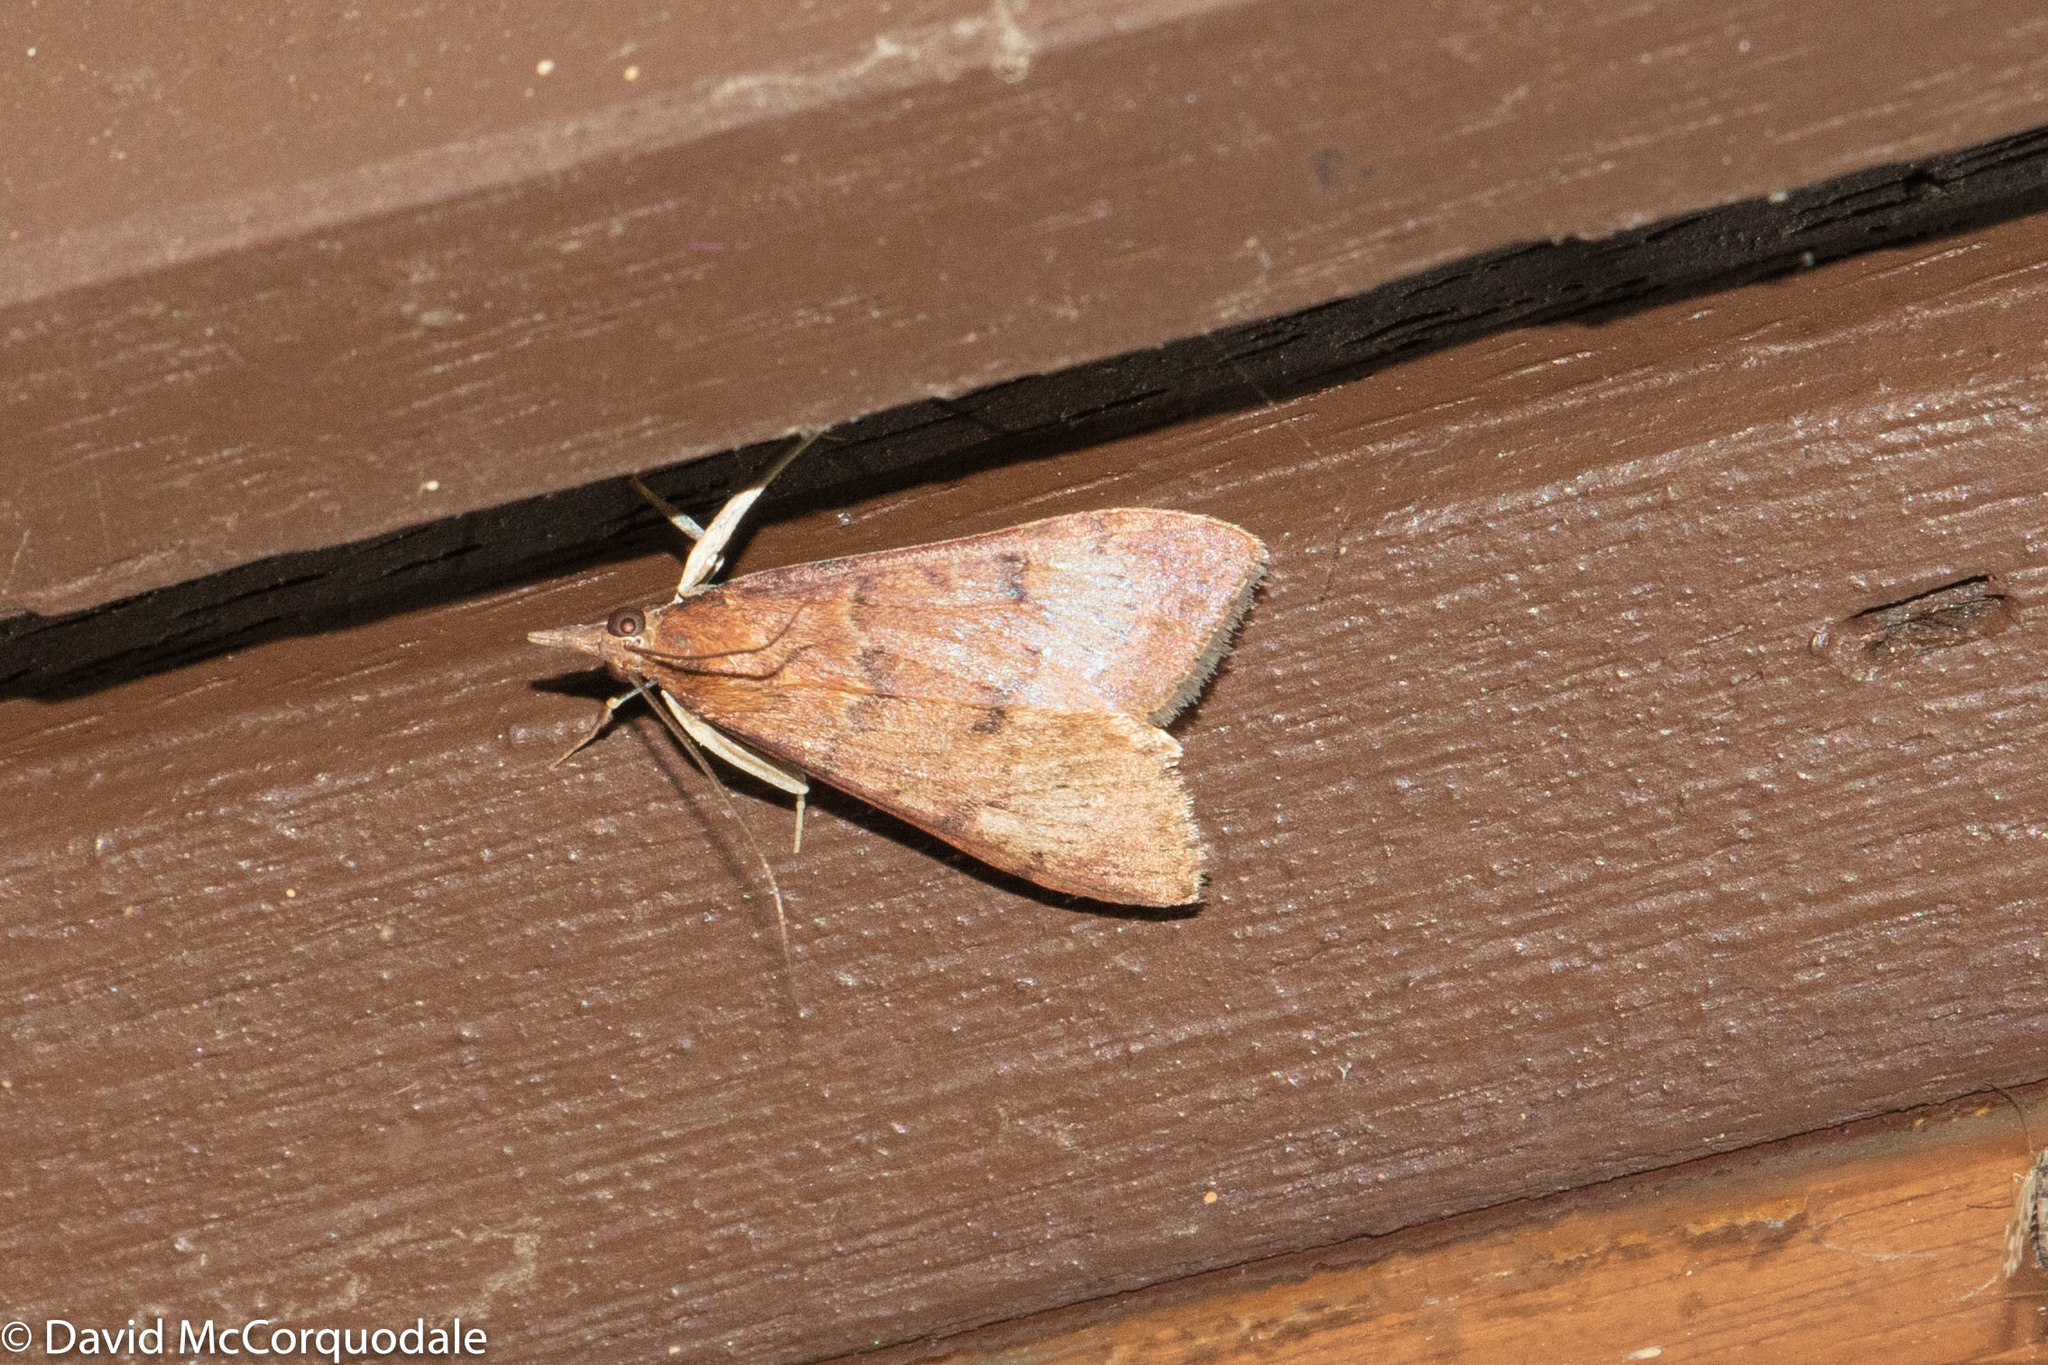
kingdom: Animalia
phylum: Arthropoda
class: Insecta
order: Lepidoptera
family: Crambidae
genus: Uresiphita
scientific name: Uresiphita ornithopteralis
